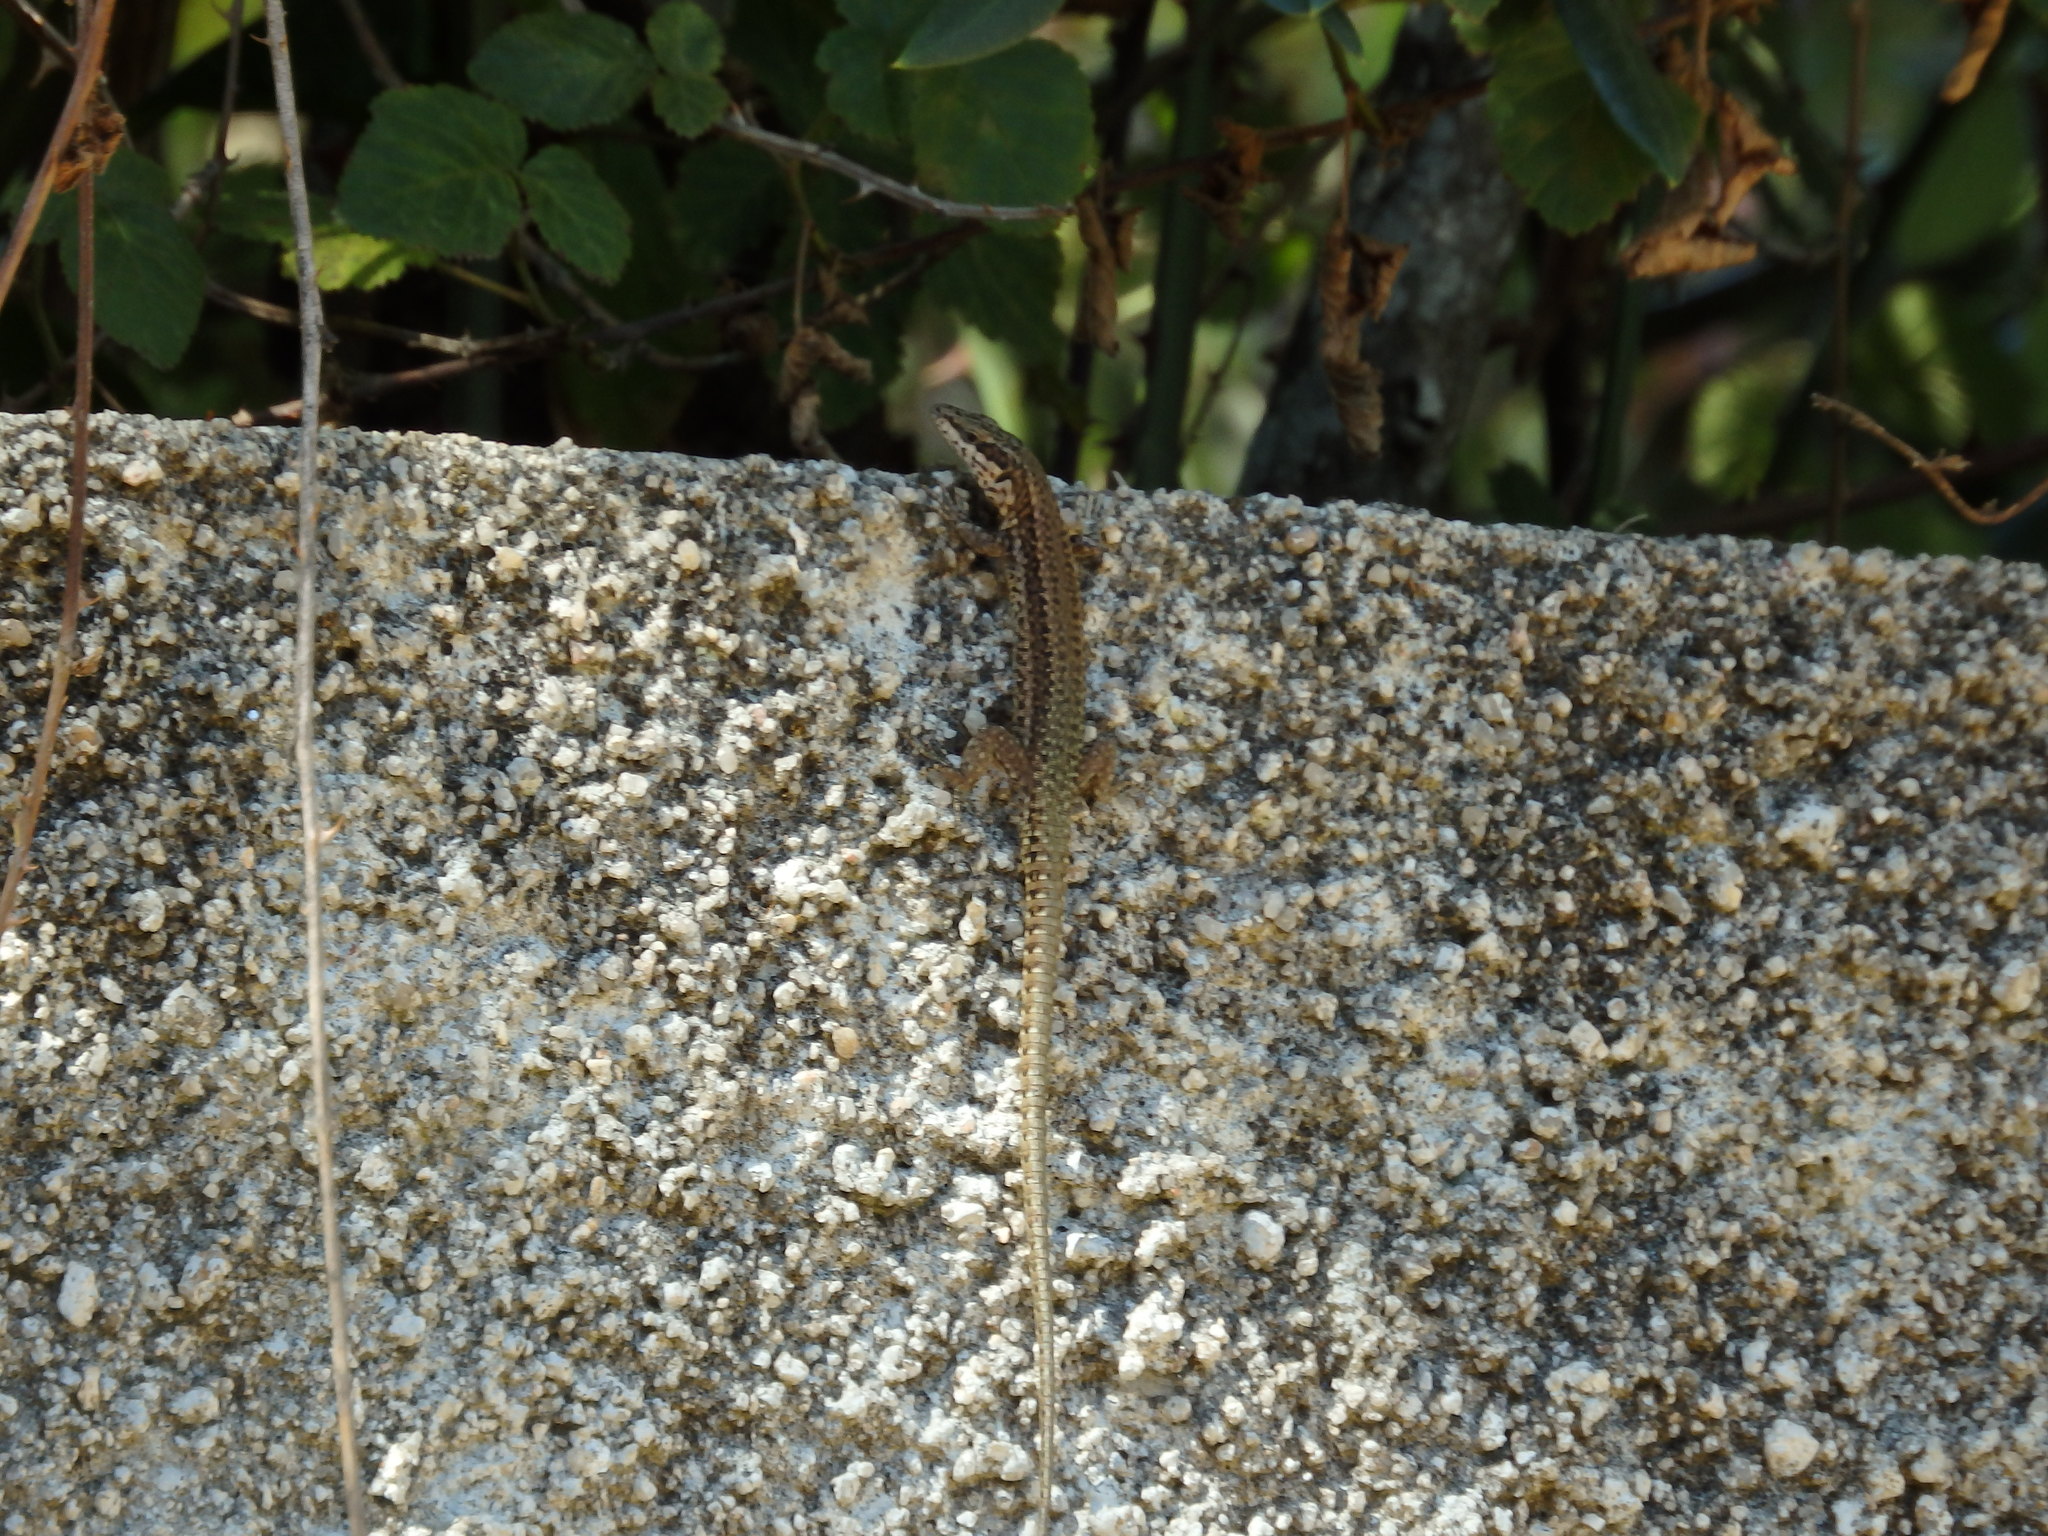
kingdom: Animalia
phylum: Chordata
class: Squamata
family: Lacertidae
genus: Podarcis
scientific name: Podarcis virescens
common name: Geniez’s wall lizard
